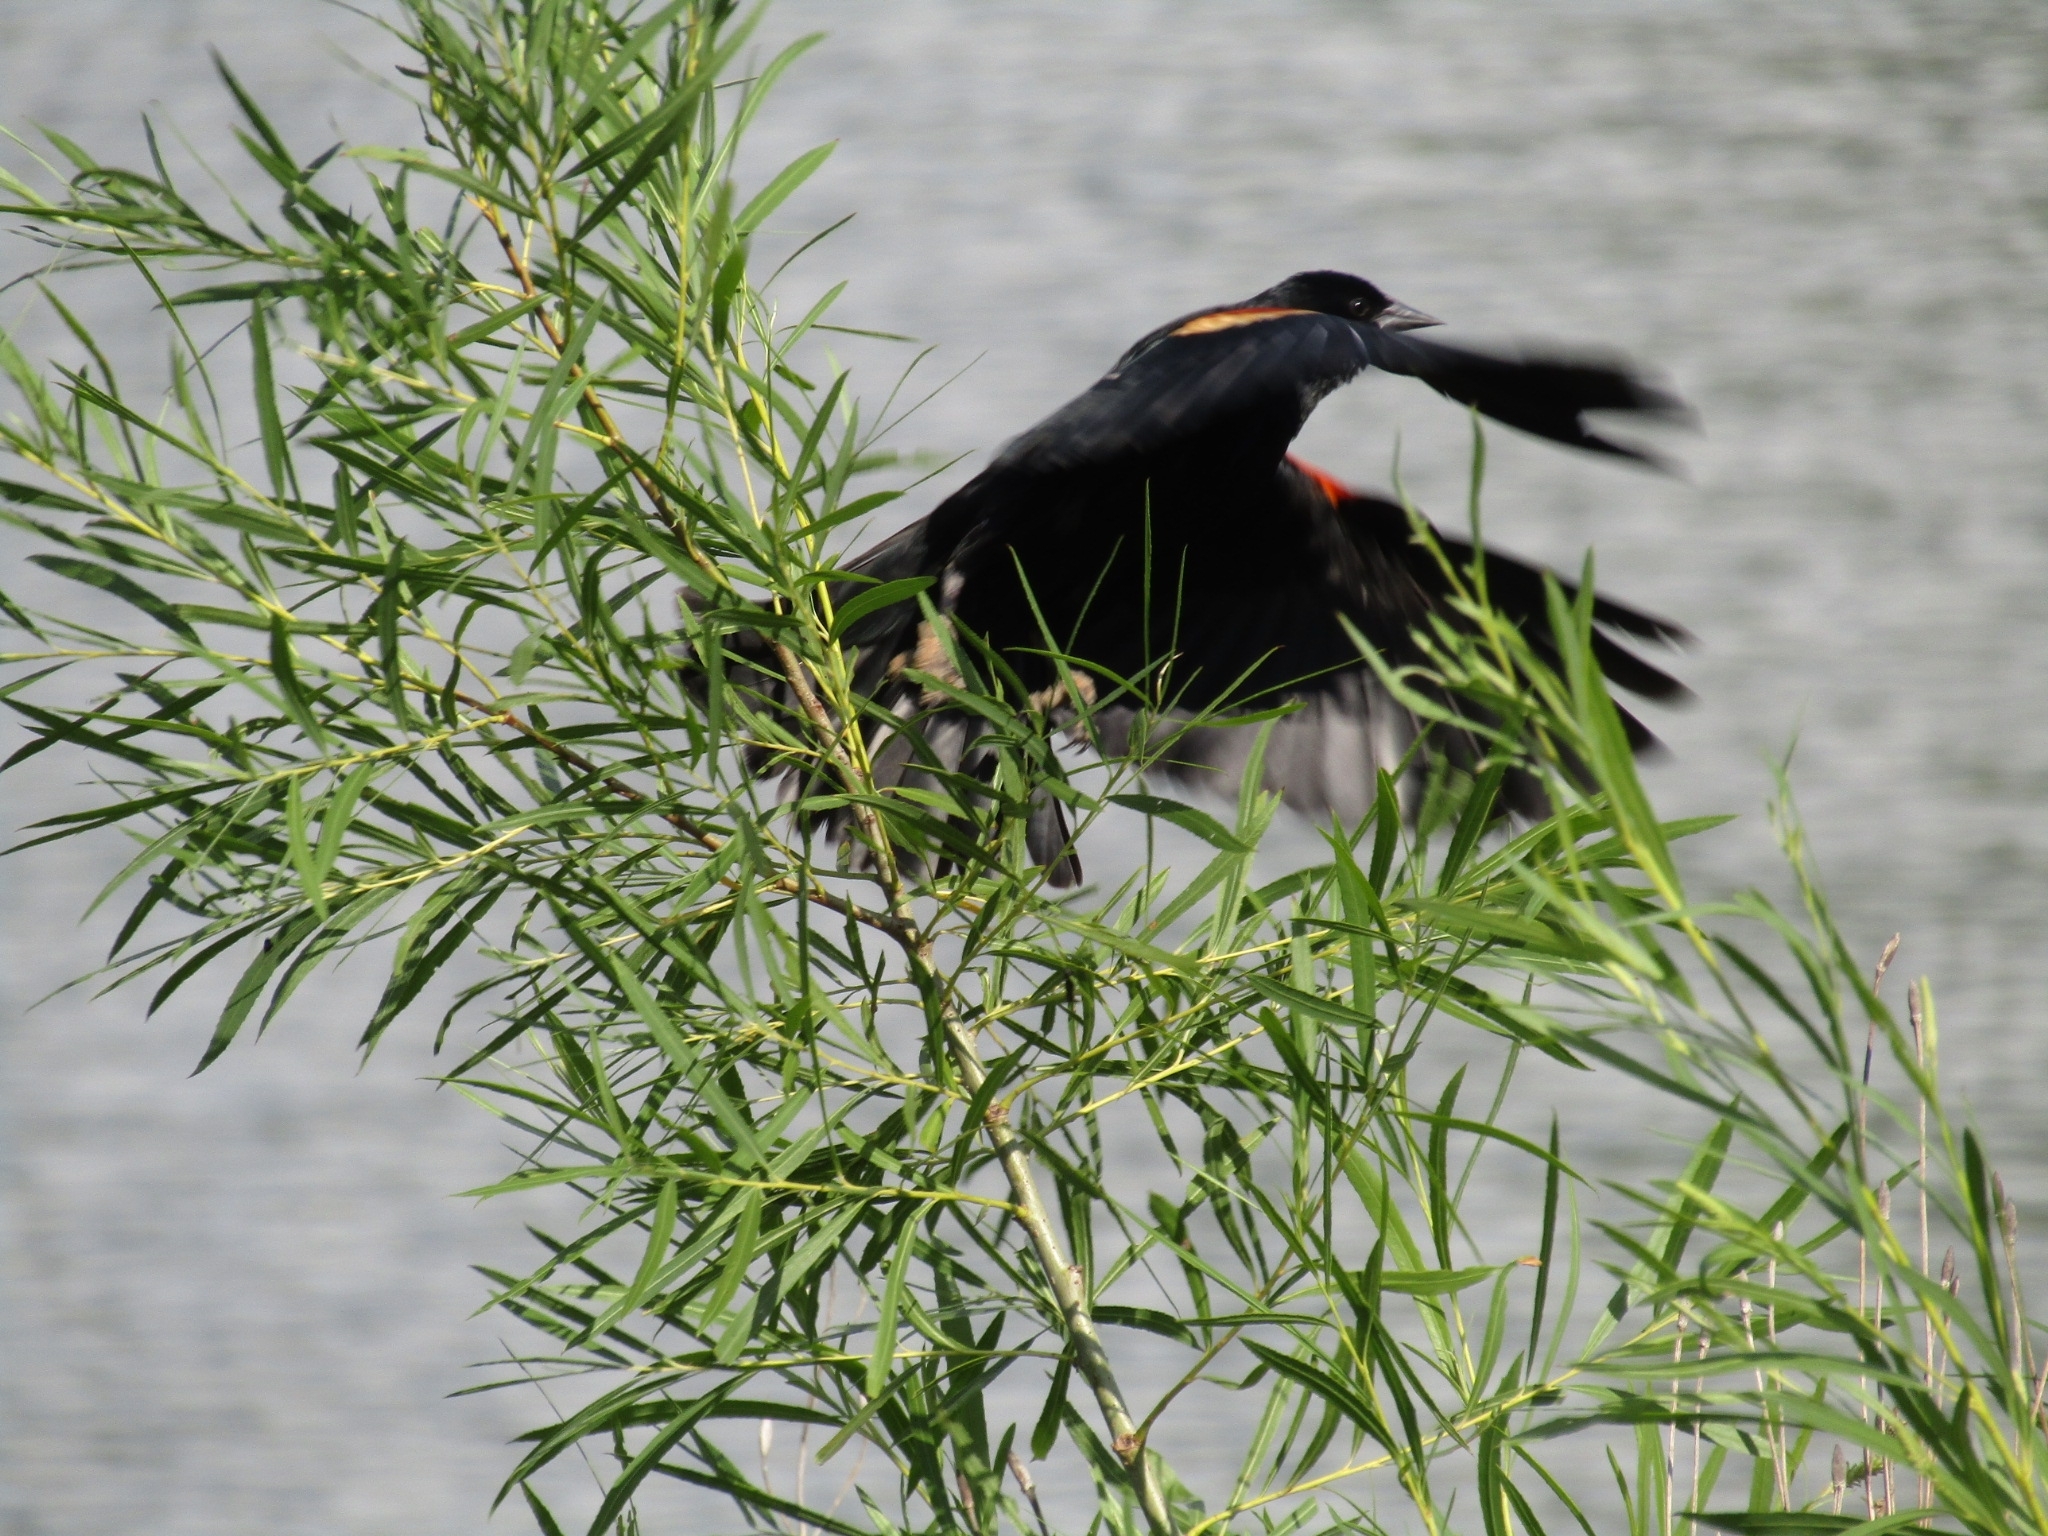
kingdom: Animalia
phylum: Chordata
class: Aves
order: Passeriformes
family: Icteridae
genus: Agelaius
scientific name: Agelaius phoeniceus
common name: Red-winged blackbird
